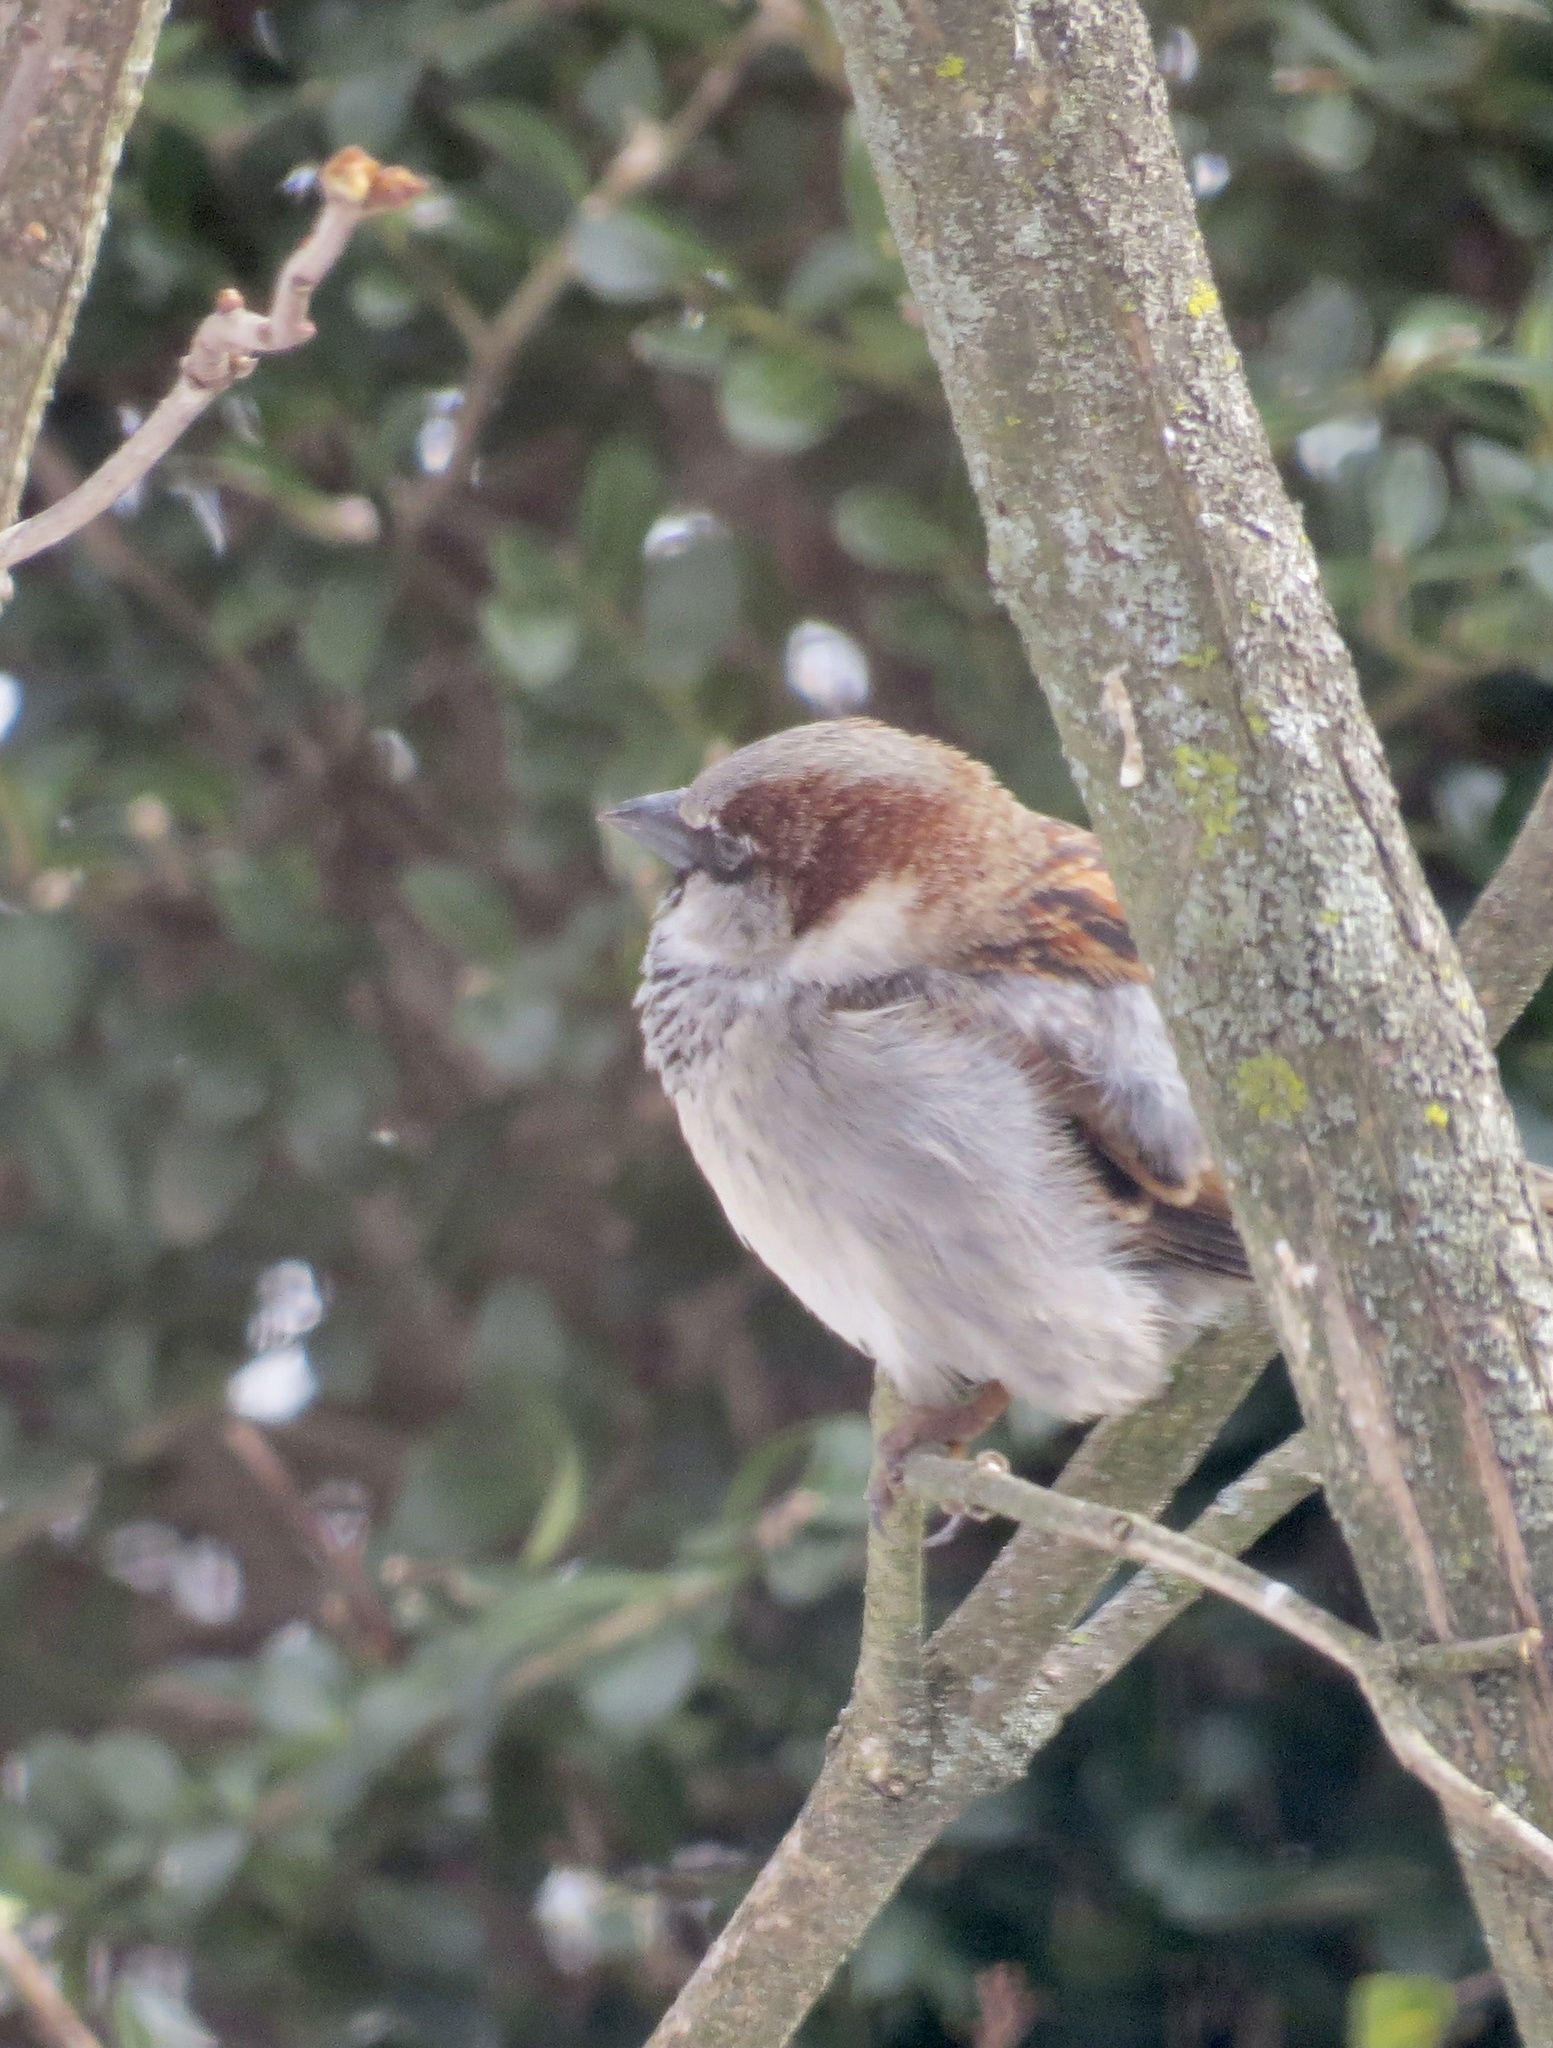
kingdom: Animalia
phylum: Chordata
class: Aves
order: Passeriformes
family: Passeridae
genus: Passer
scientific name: Passer domesticus
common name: House sparrow
